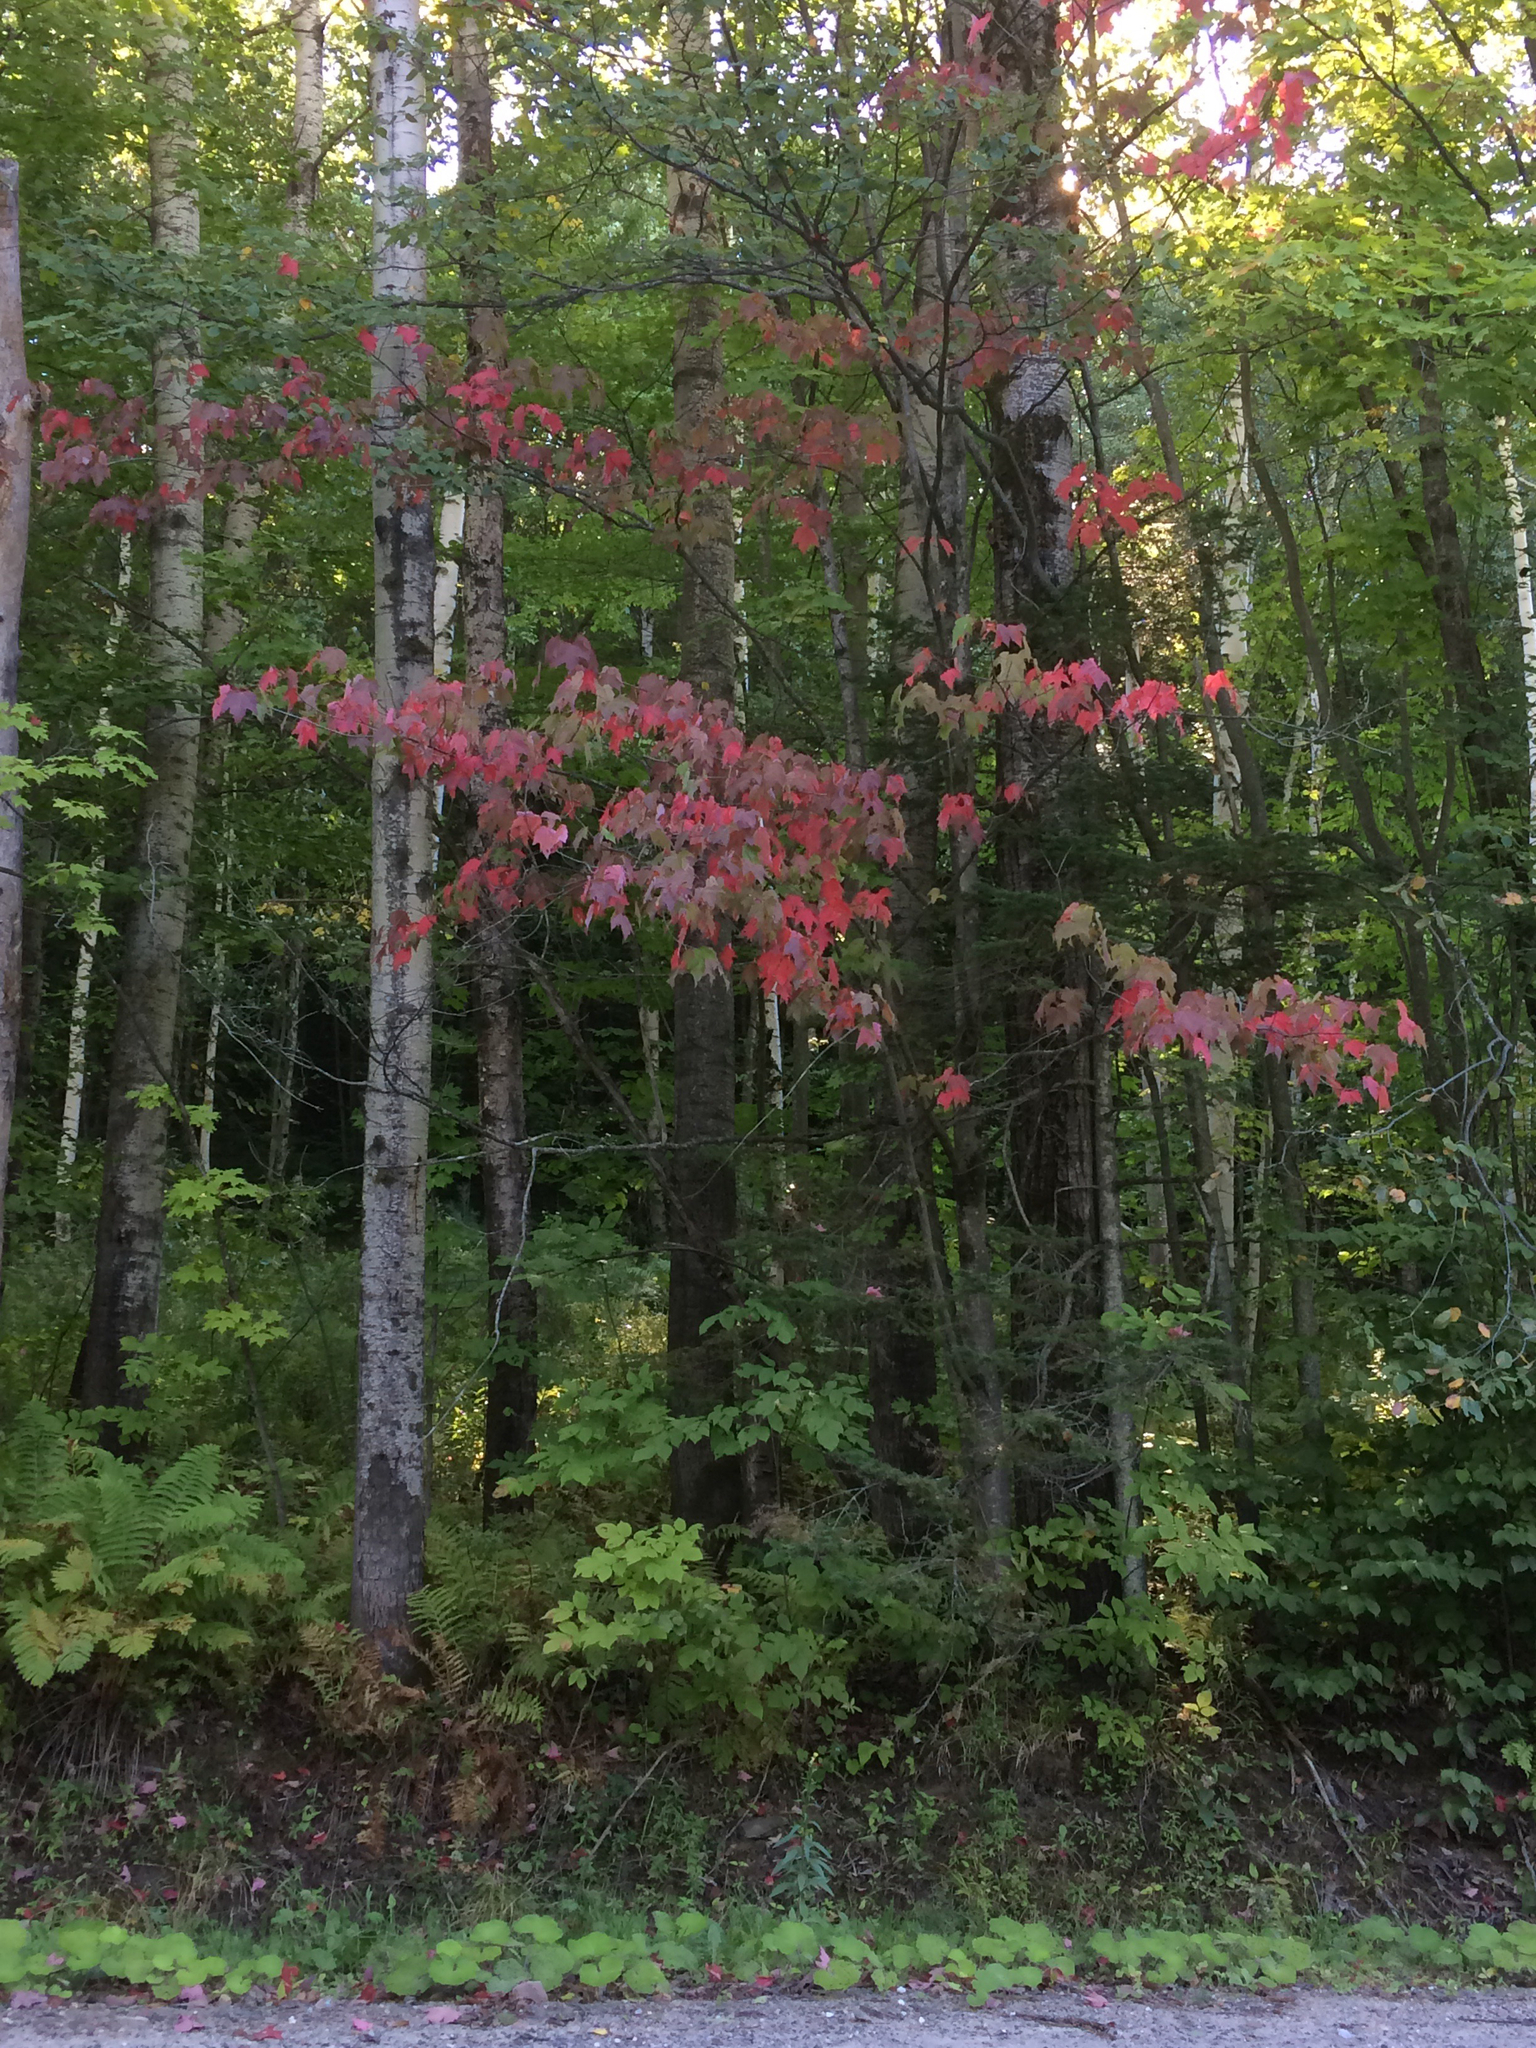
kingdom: Plantae
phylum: Tracheophyta
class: Magnoliopsida
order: Asterales
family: Asteraceae
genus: Tussilago
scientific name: Tussilago farfara
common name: Coltsfoot
